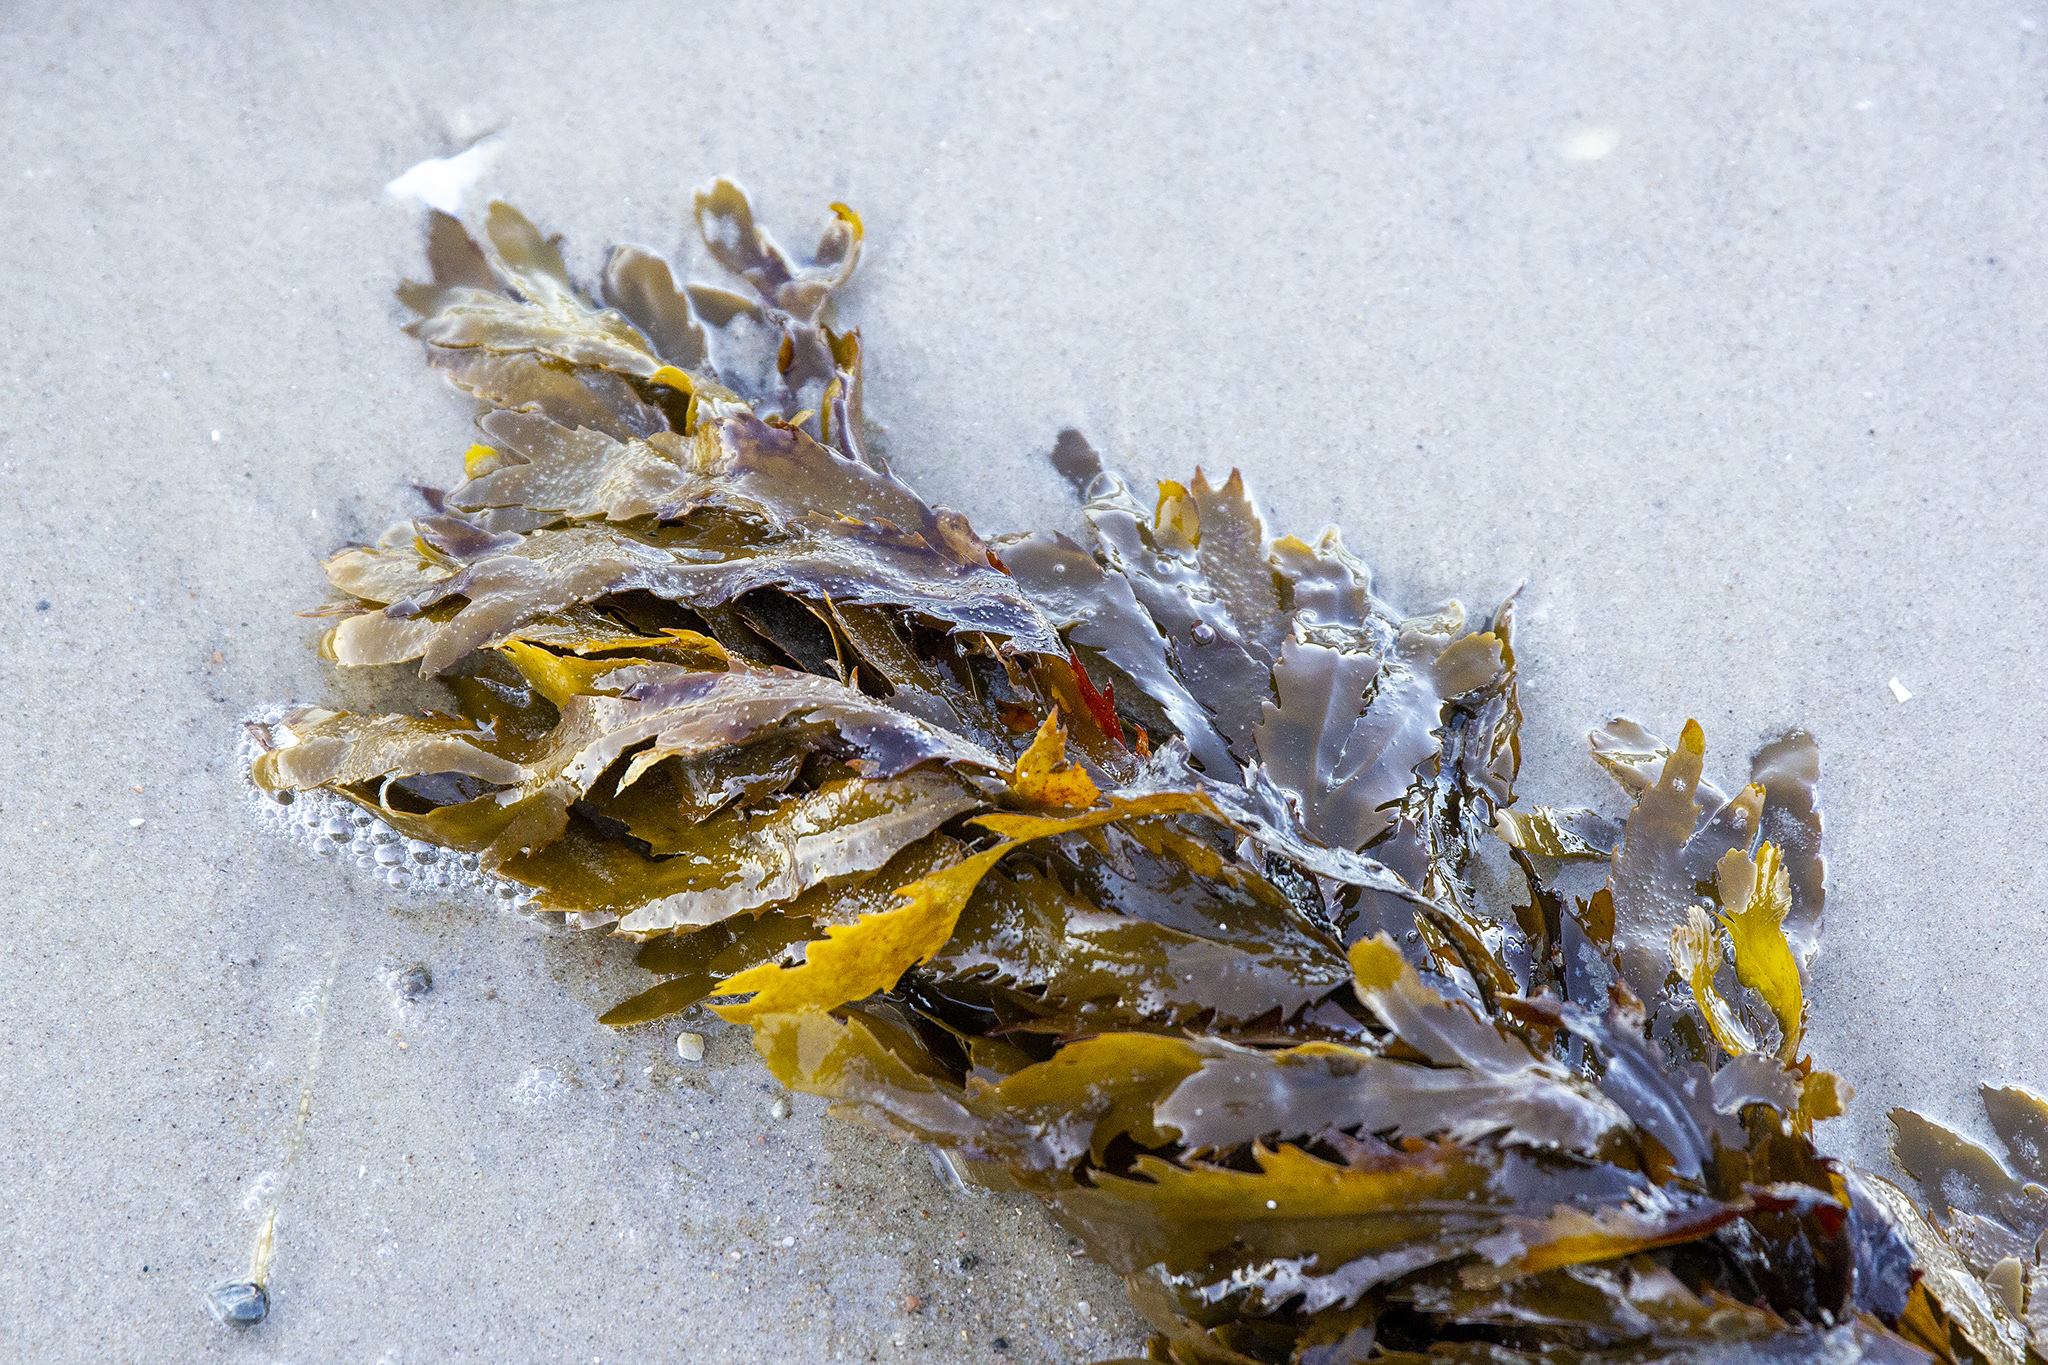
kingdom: Chromista
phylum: Ochrophyta
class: Phaeophyceae
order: Fucales
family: Fucaceae
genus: Fucus
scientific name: Fucus serratus
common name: Toothed wrack
